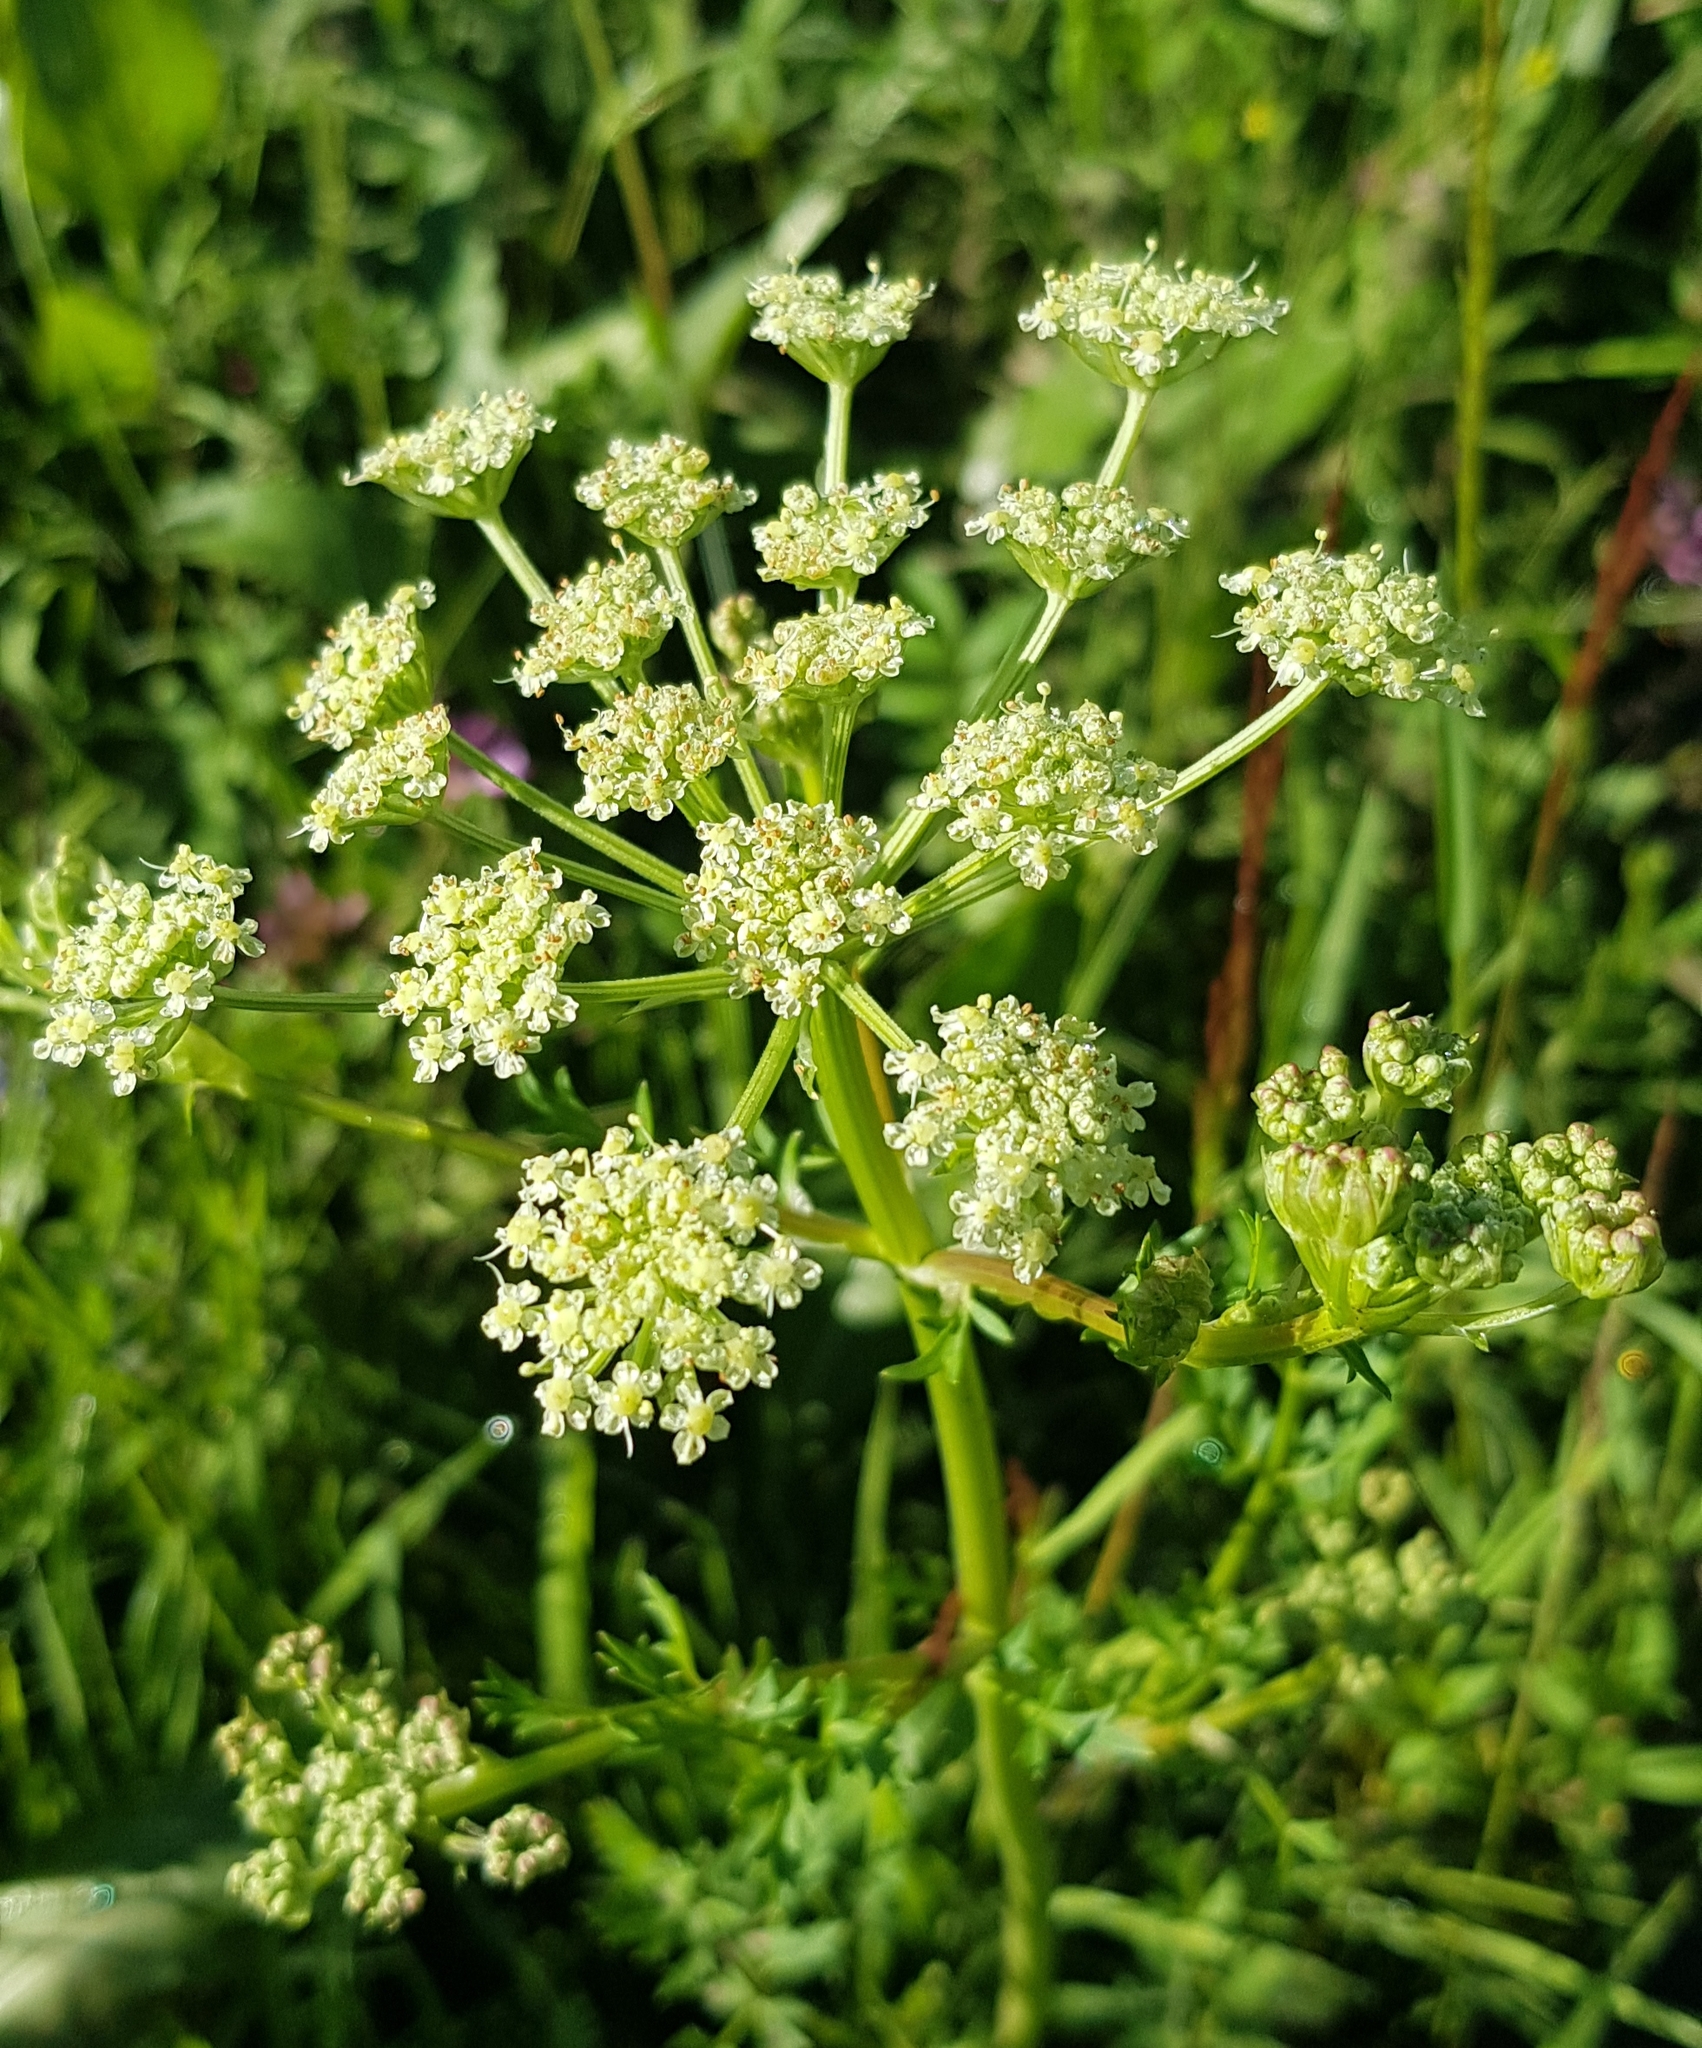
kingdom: Plantae
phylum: Tracheophyta
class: Magnoliopsida
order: Apiales
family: Apiaceae
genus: Lithosciadium
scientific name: Lithosciadium multicaule
